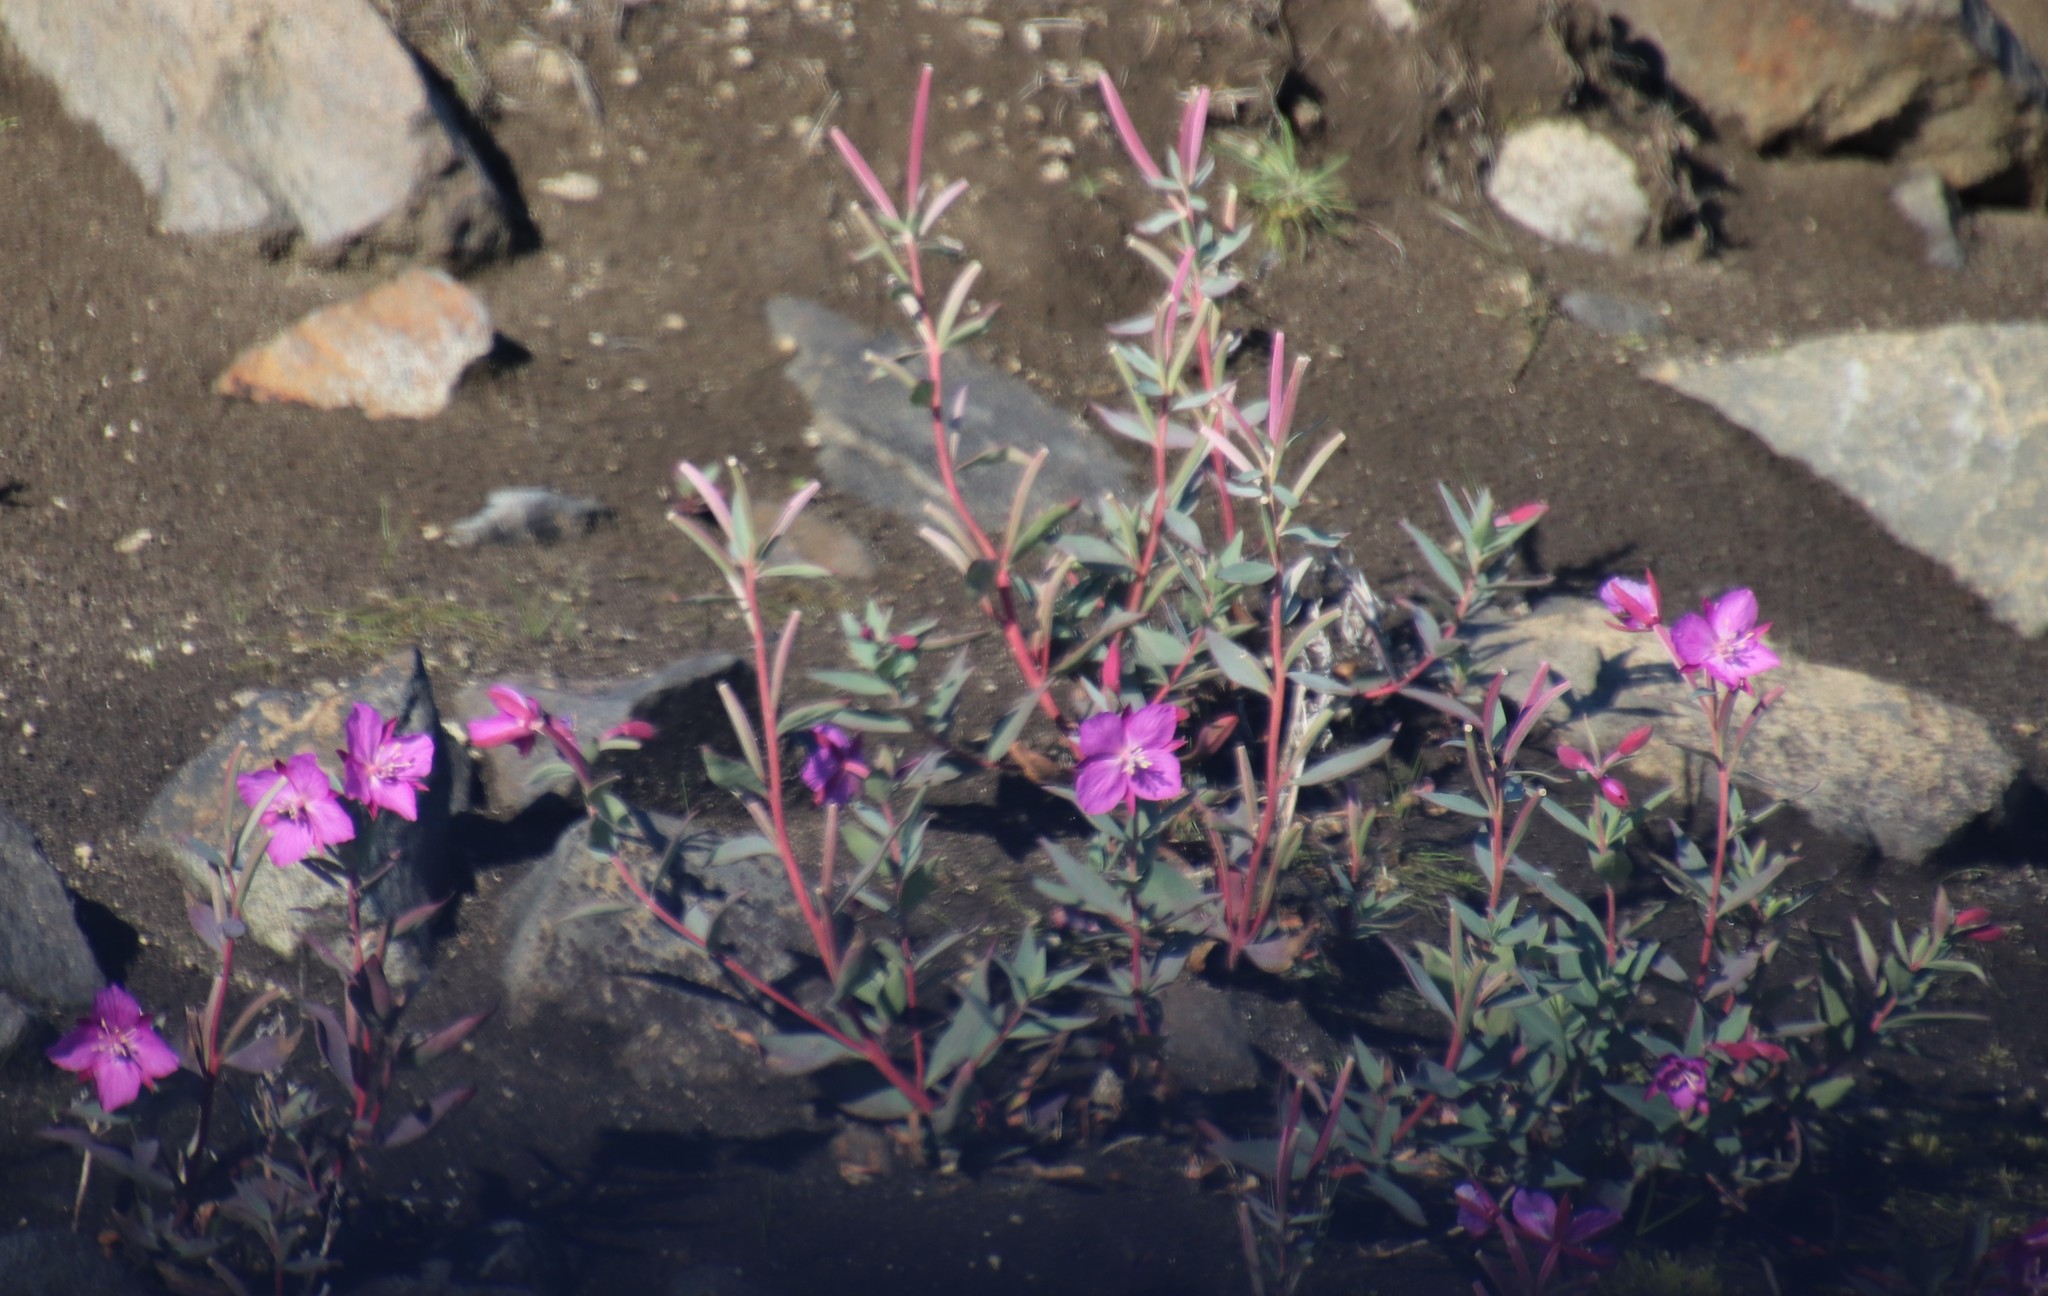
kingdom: Plantae
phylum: Tracheophyta
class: Magnoliopsida
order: Myrtales
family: Onagraceae
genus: Chamaenerion
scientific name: Chamaenerion latifolium
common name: Dwarf fireweed
